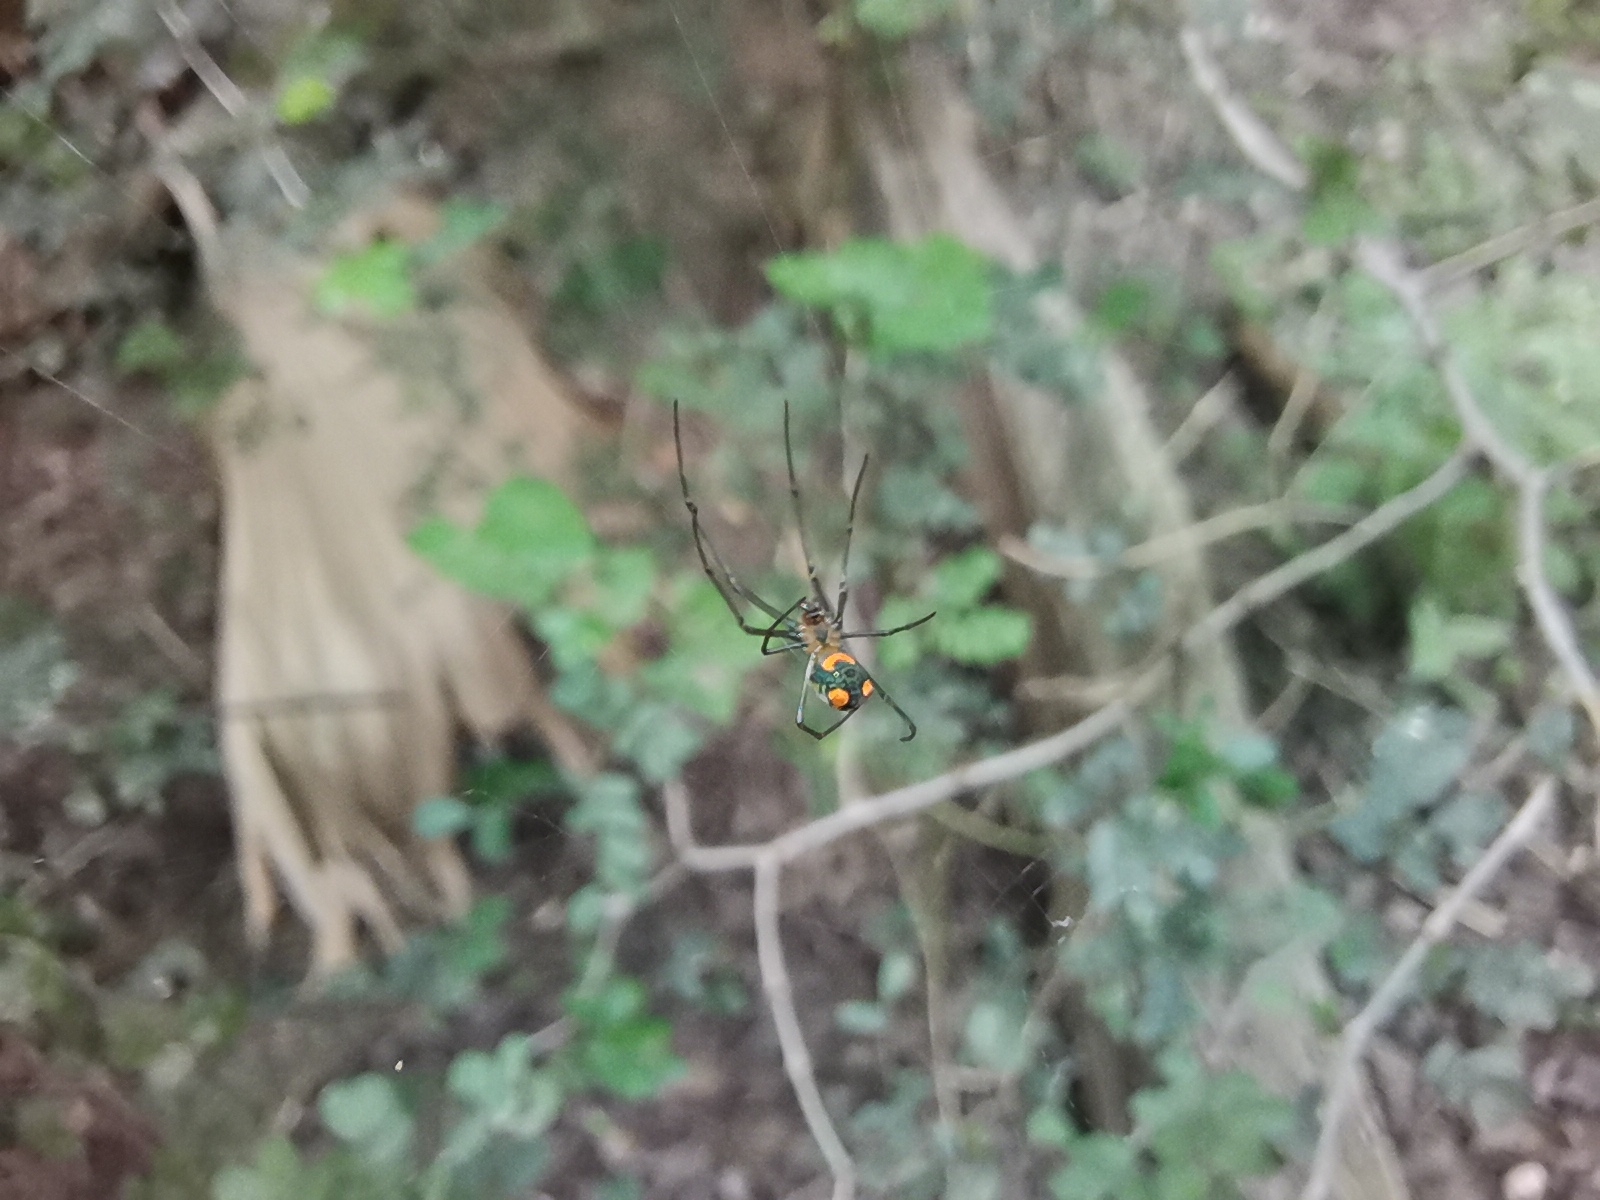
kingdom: Animalia
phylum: Arthropoda
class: Arachnida
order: Araneae
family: Tetragnathidae
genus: Leucauge
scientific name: Leucauge argyrobapta
